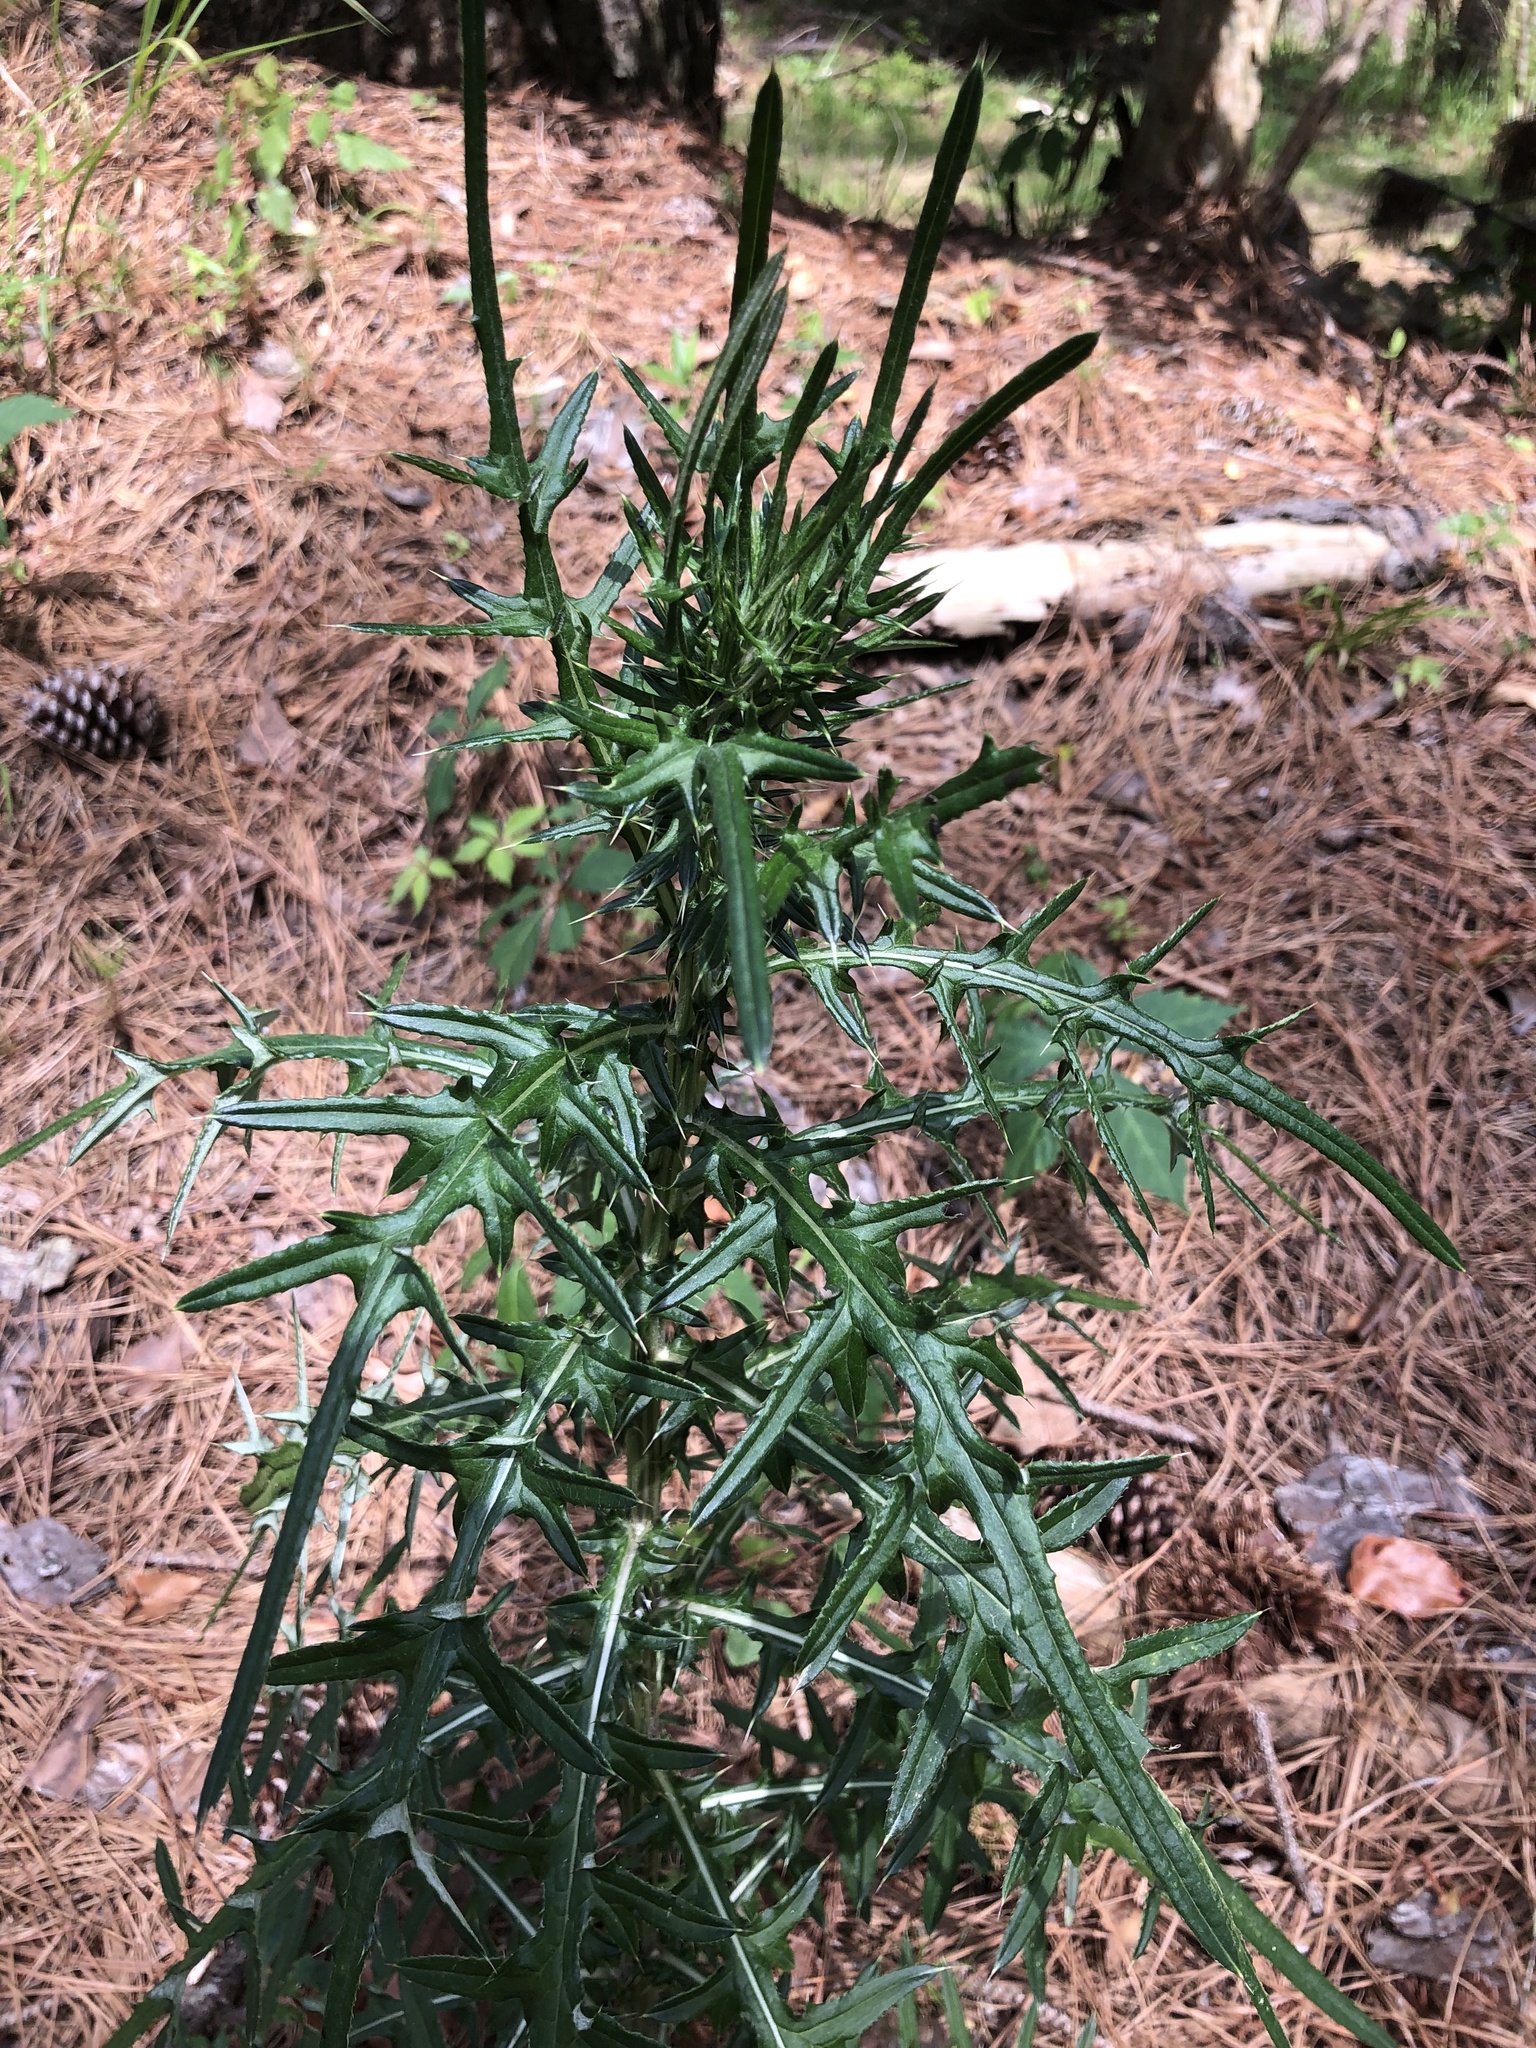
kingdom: Plantae
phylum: Tracheophyta
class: Magnoliopsida
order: Asterales
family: Asteraceae
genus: Cirsium
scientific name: Cirsium nuttalii
